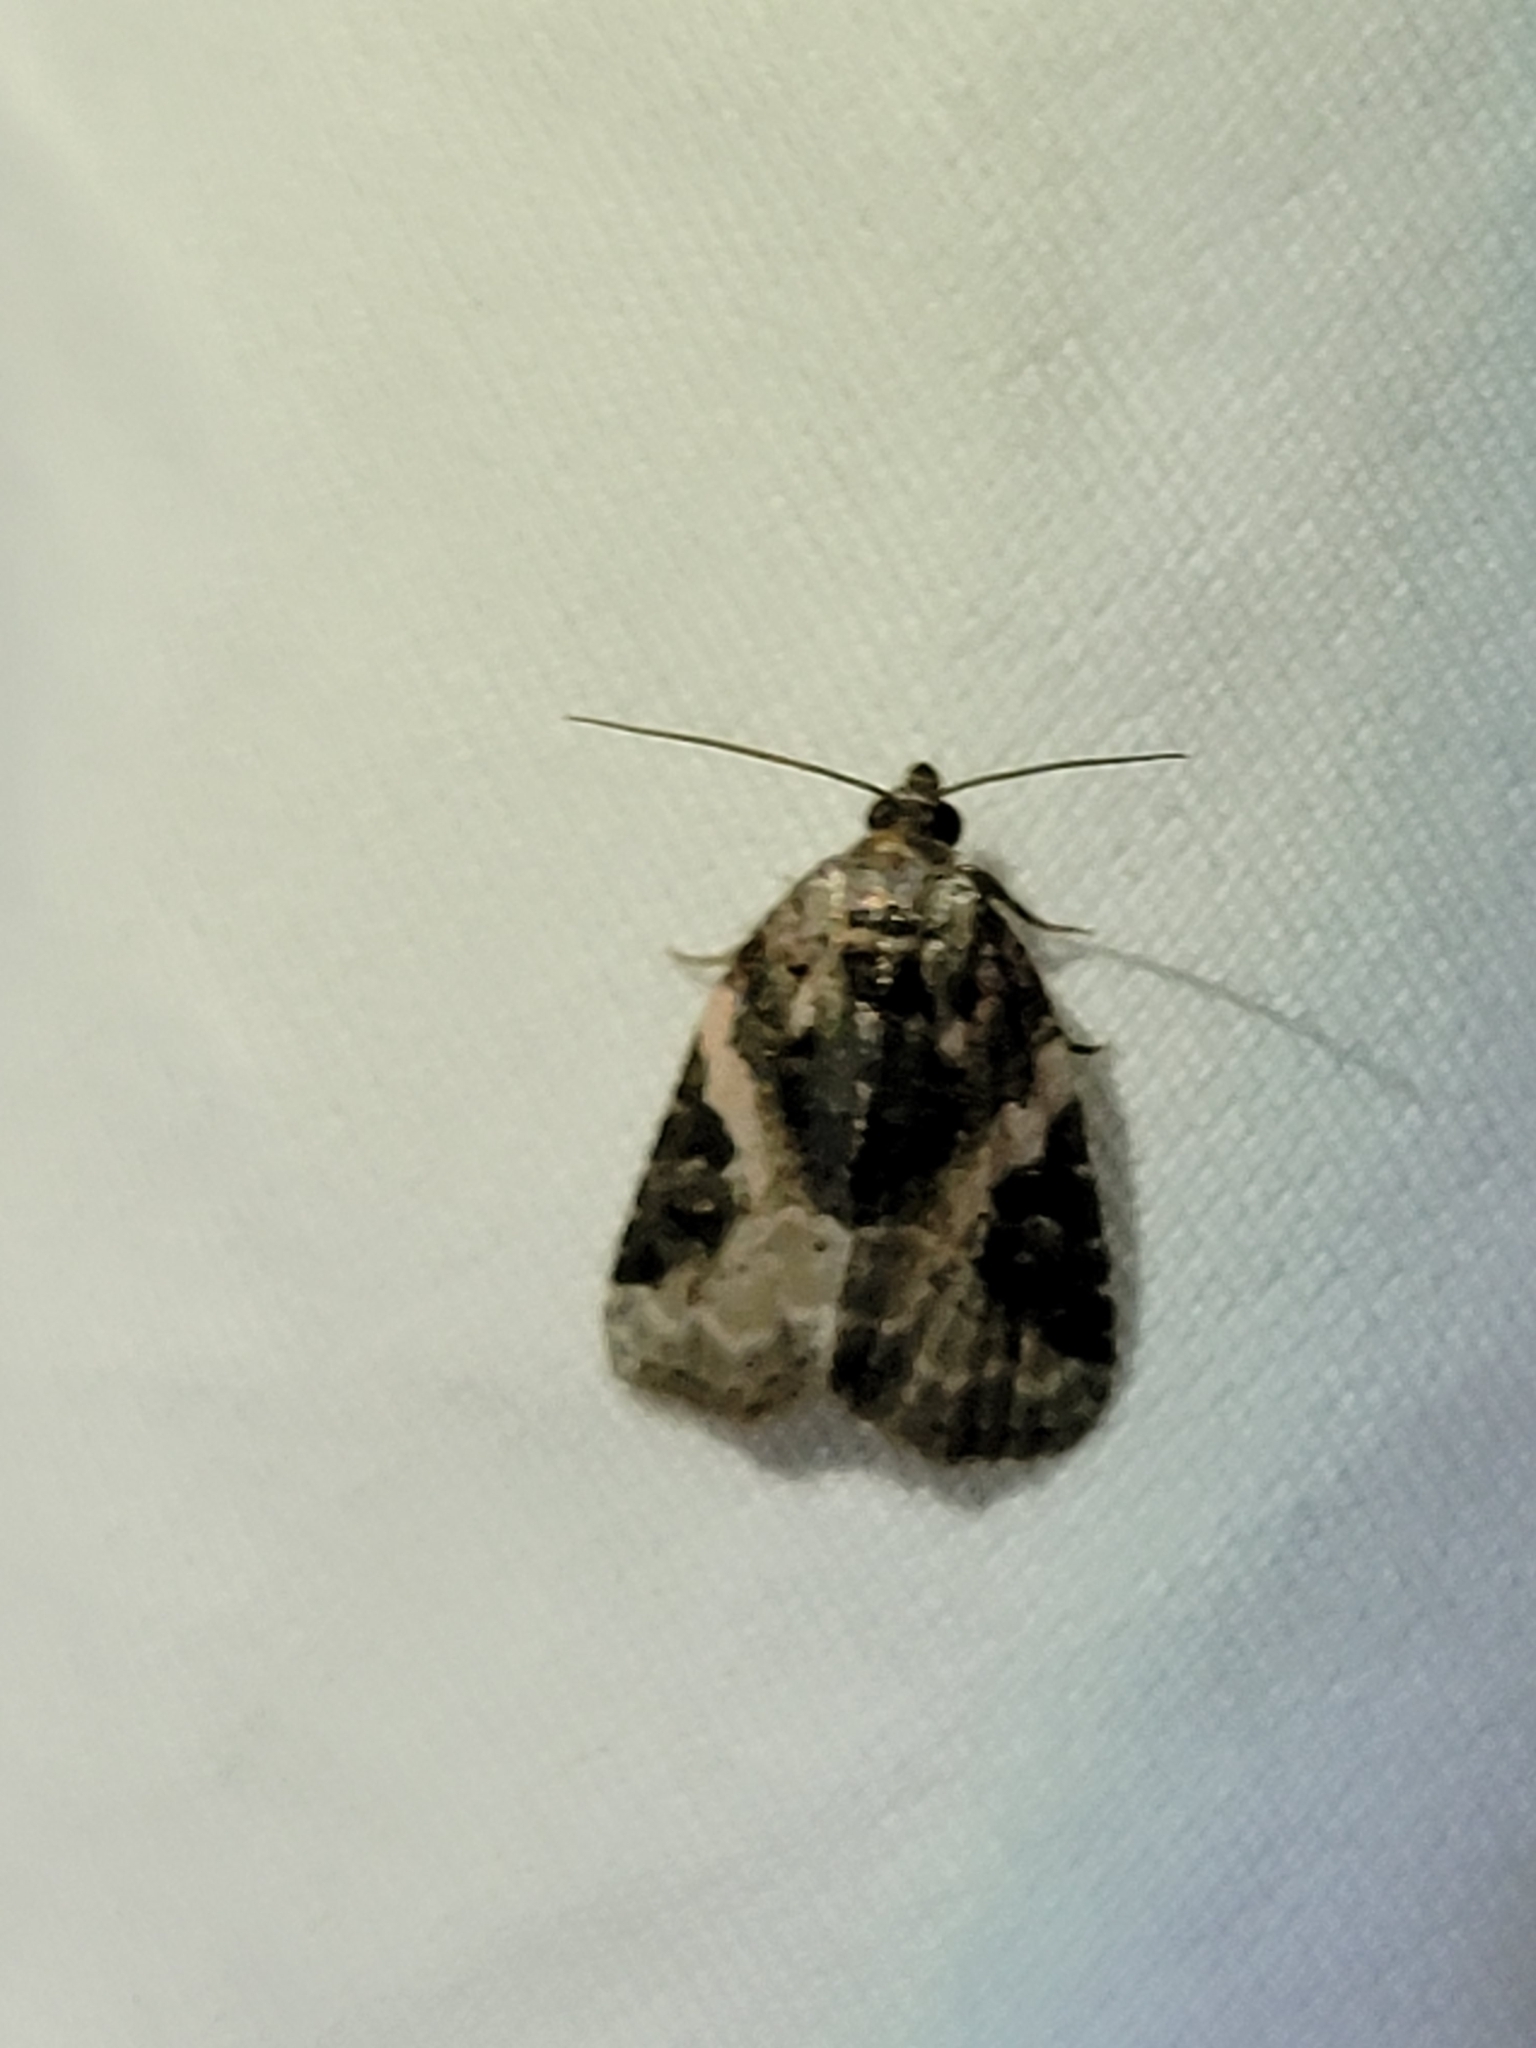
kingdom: Animalia
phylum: Arthropoda
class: Insecta
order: Lepidoptera
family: Noctuidae
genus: Pseudeustrotia
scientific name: Pseudeustrotia carneola
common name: Pink-barred lithacodia moth
